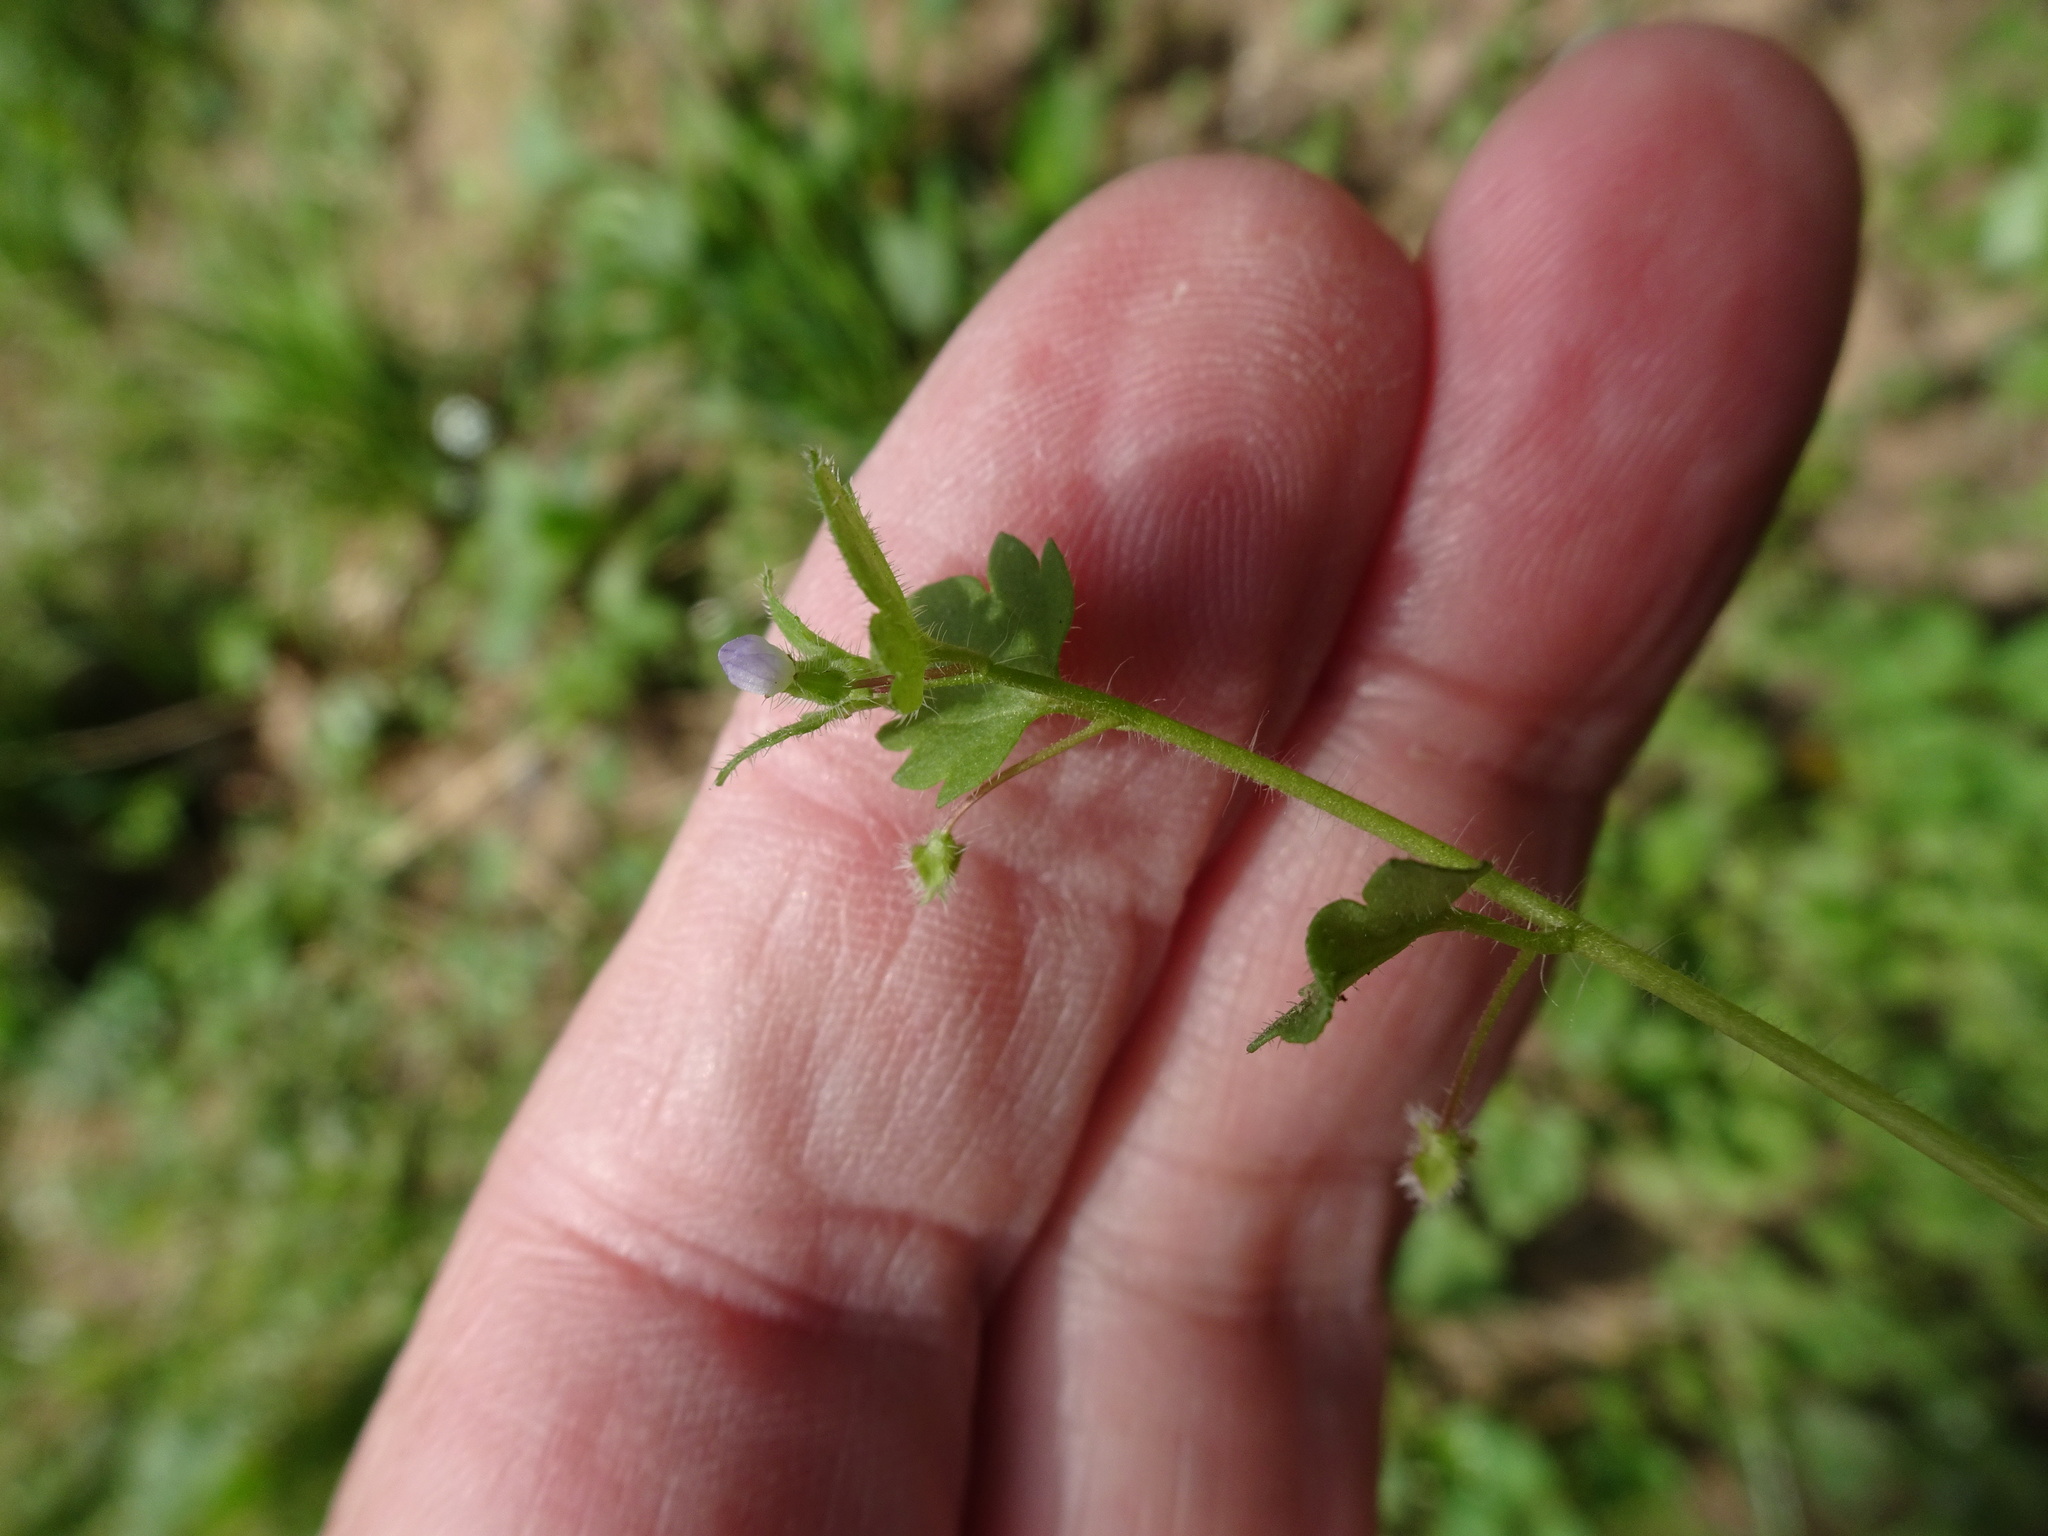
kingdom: Plantae
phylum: Tracheophyta
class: Magnoliopsida
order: Lamiales
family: Plantaginaceae
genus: Veronica
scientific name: Veronica hederifolia
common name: Ivy-leaved speedwell
